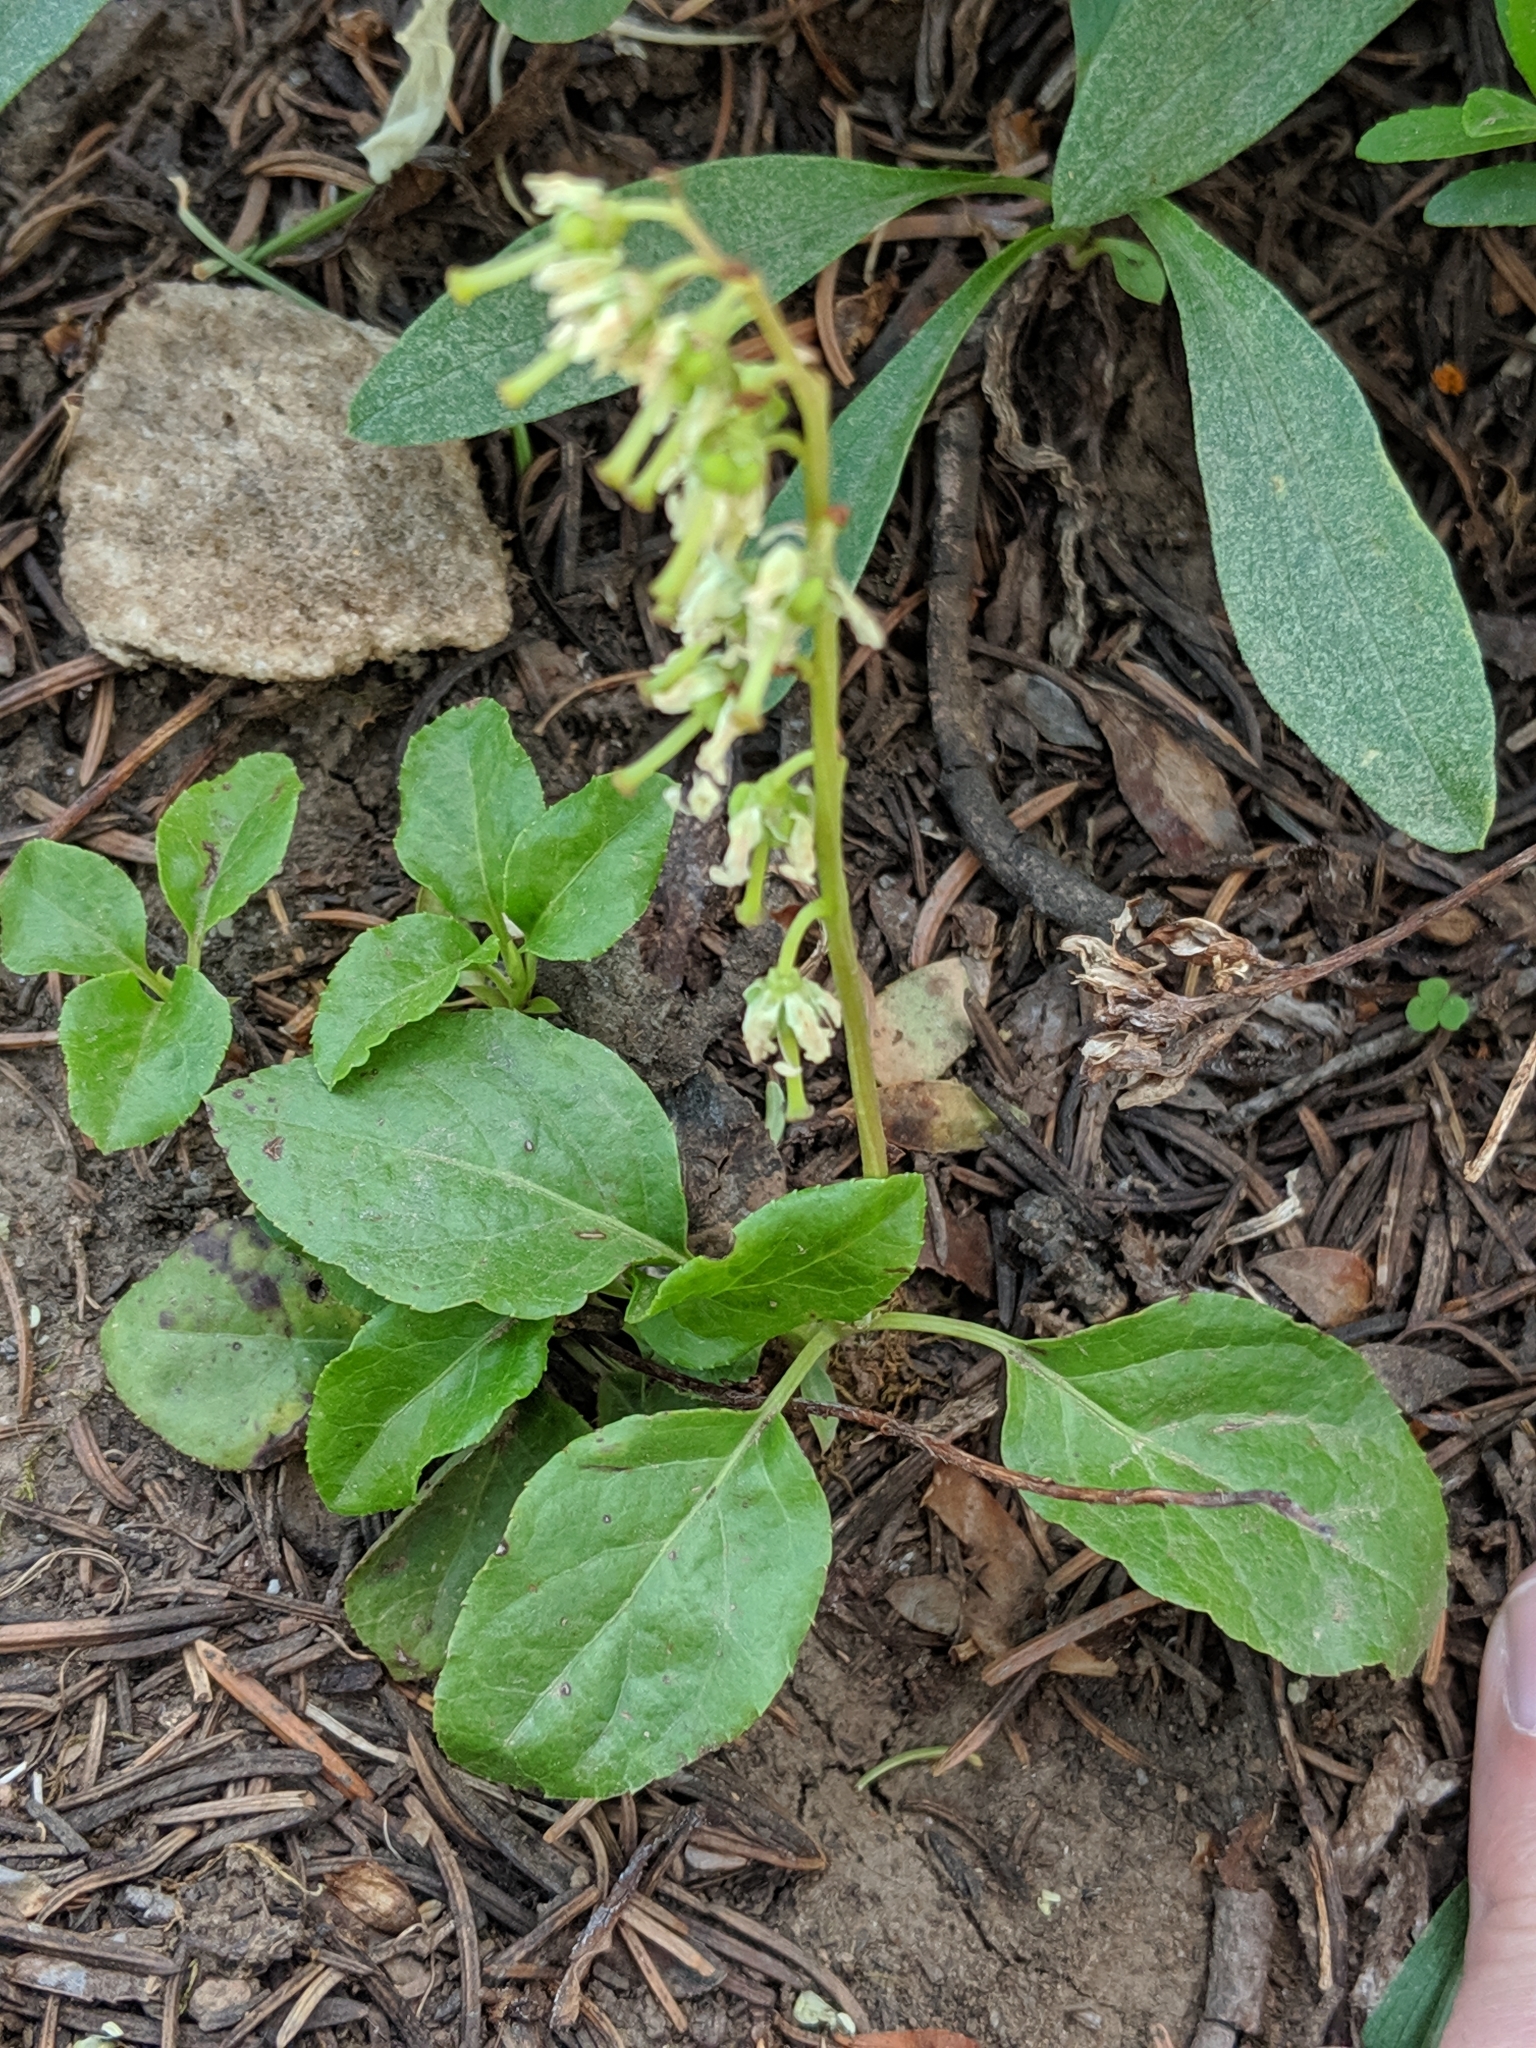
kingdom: Plantae
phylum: Tracheophyta
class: Magnoliopsida
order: Ericales
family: Ericaceae
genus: Orthilia
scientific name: Orthilia secunda
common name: One-sided orthilia
